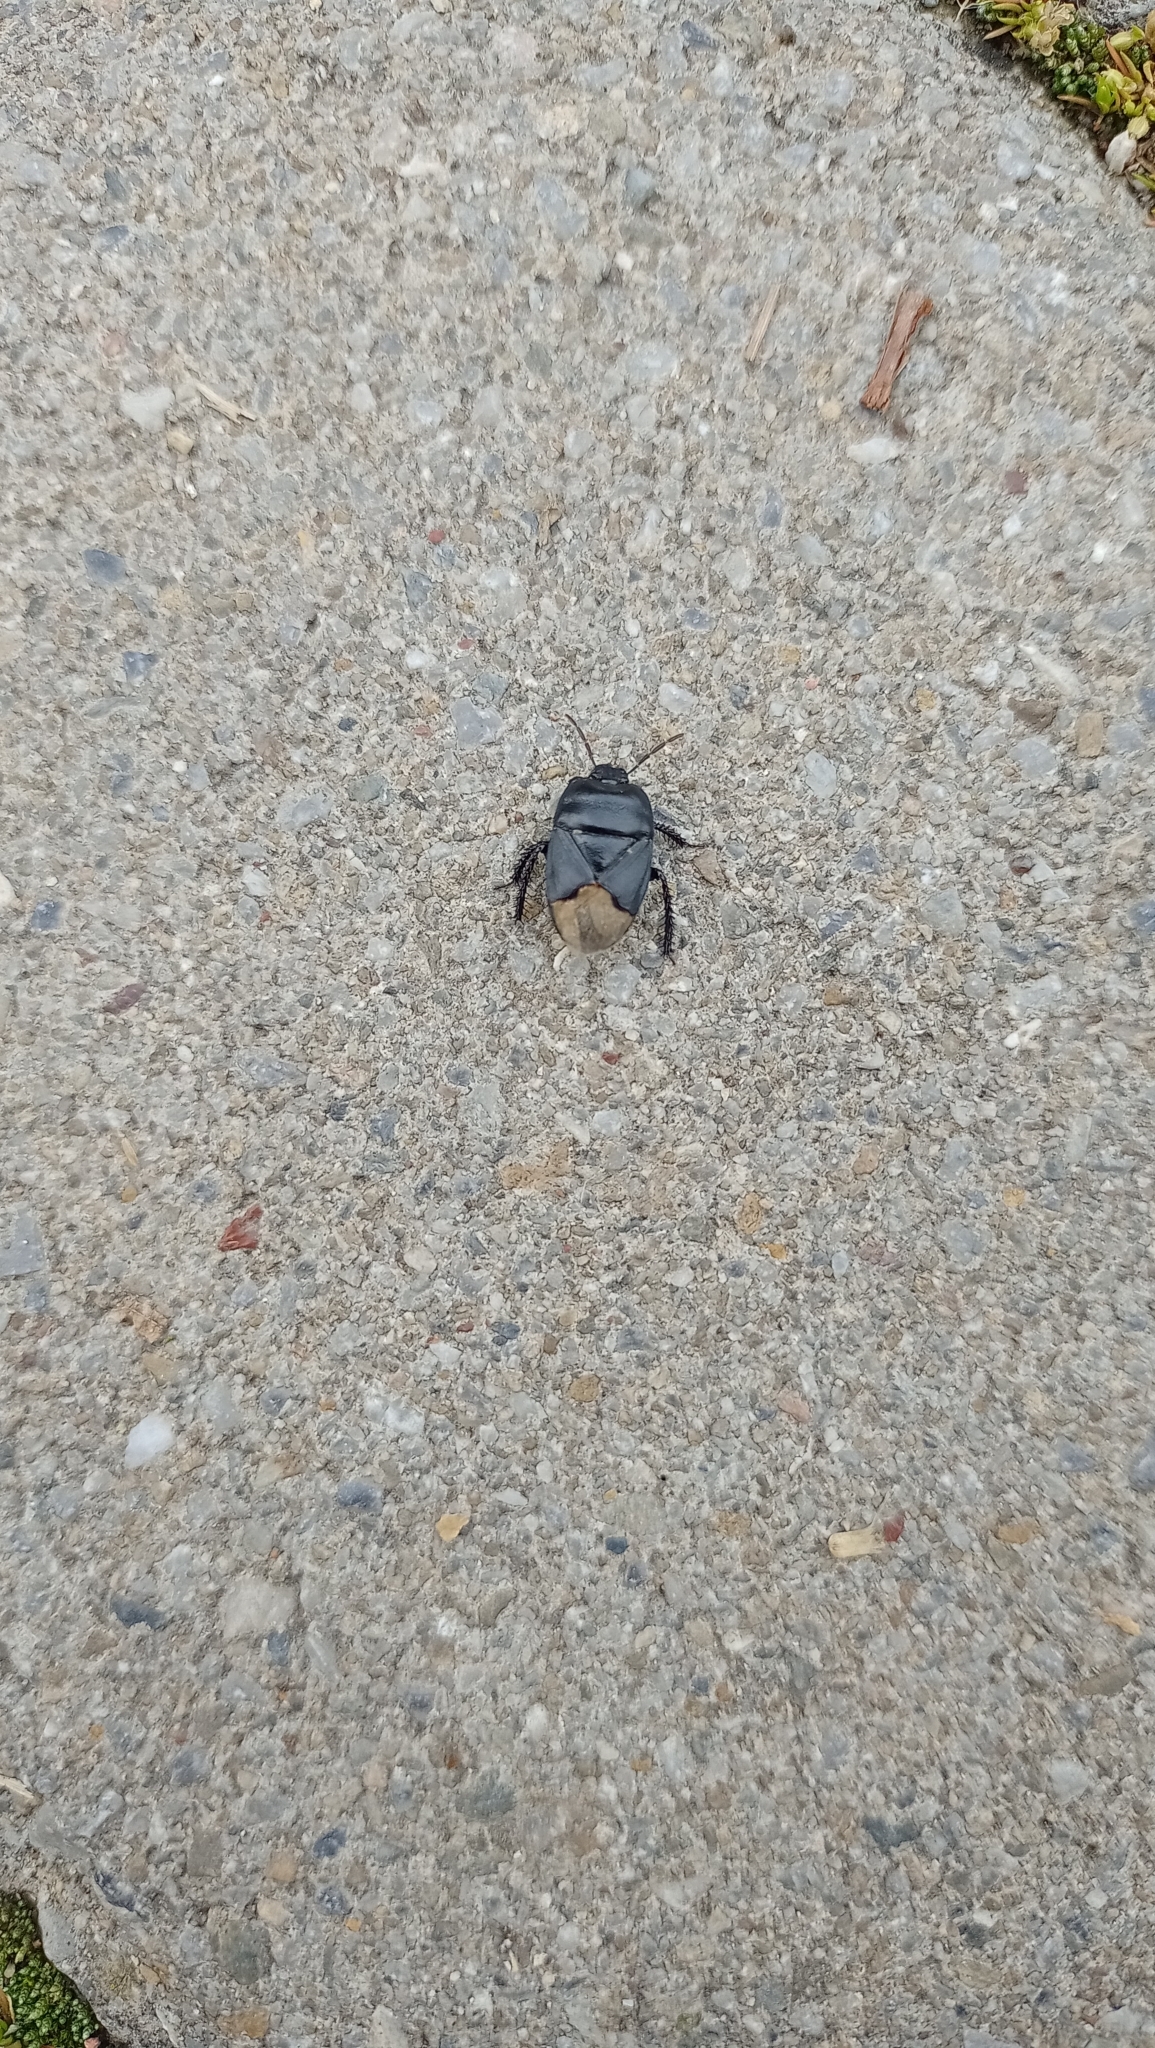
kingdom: Animalia
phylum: Arthropoda
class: Insecta
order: Hemiptera
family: Cydnidae
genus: Cydnus
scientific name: Cydnus aterrimus
